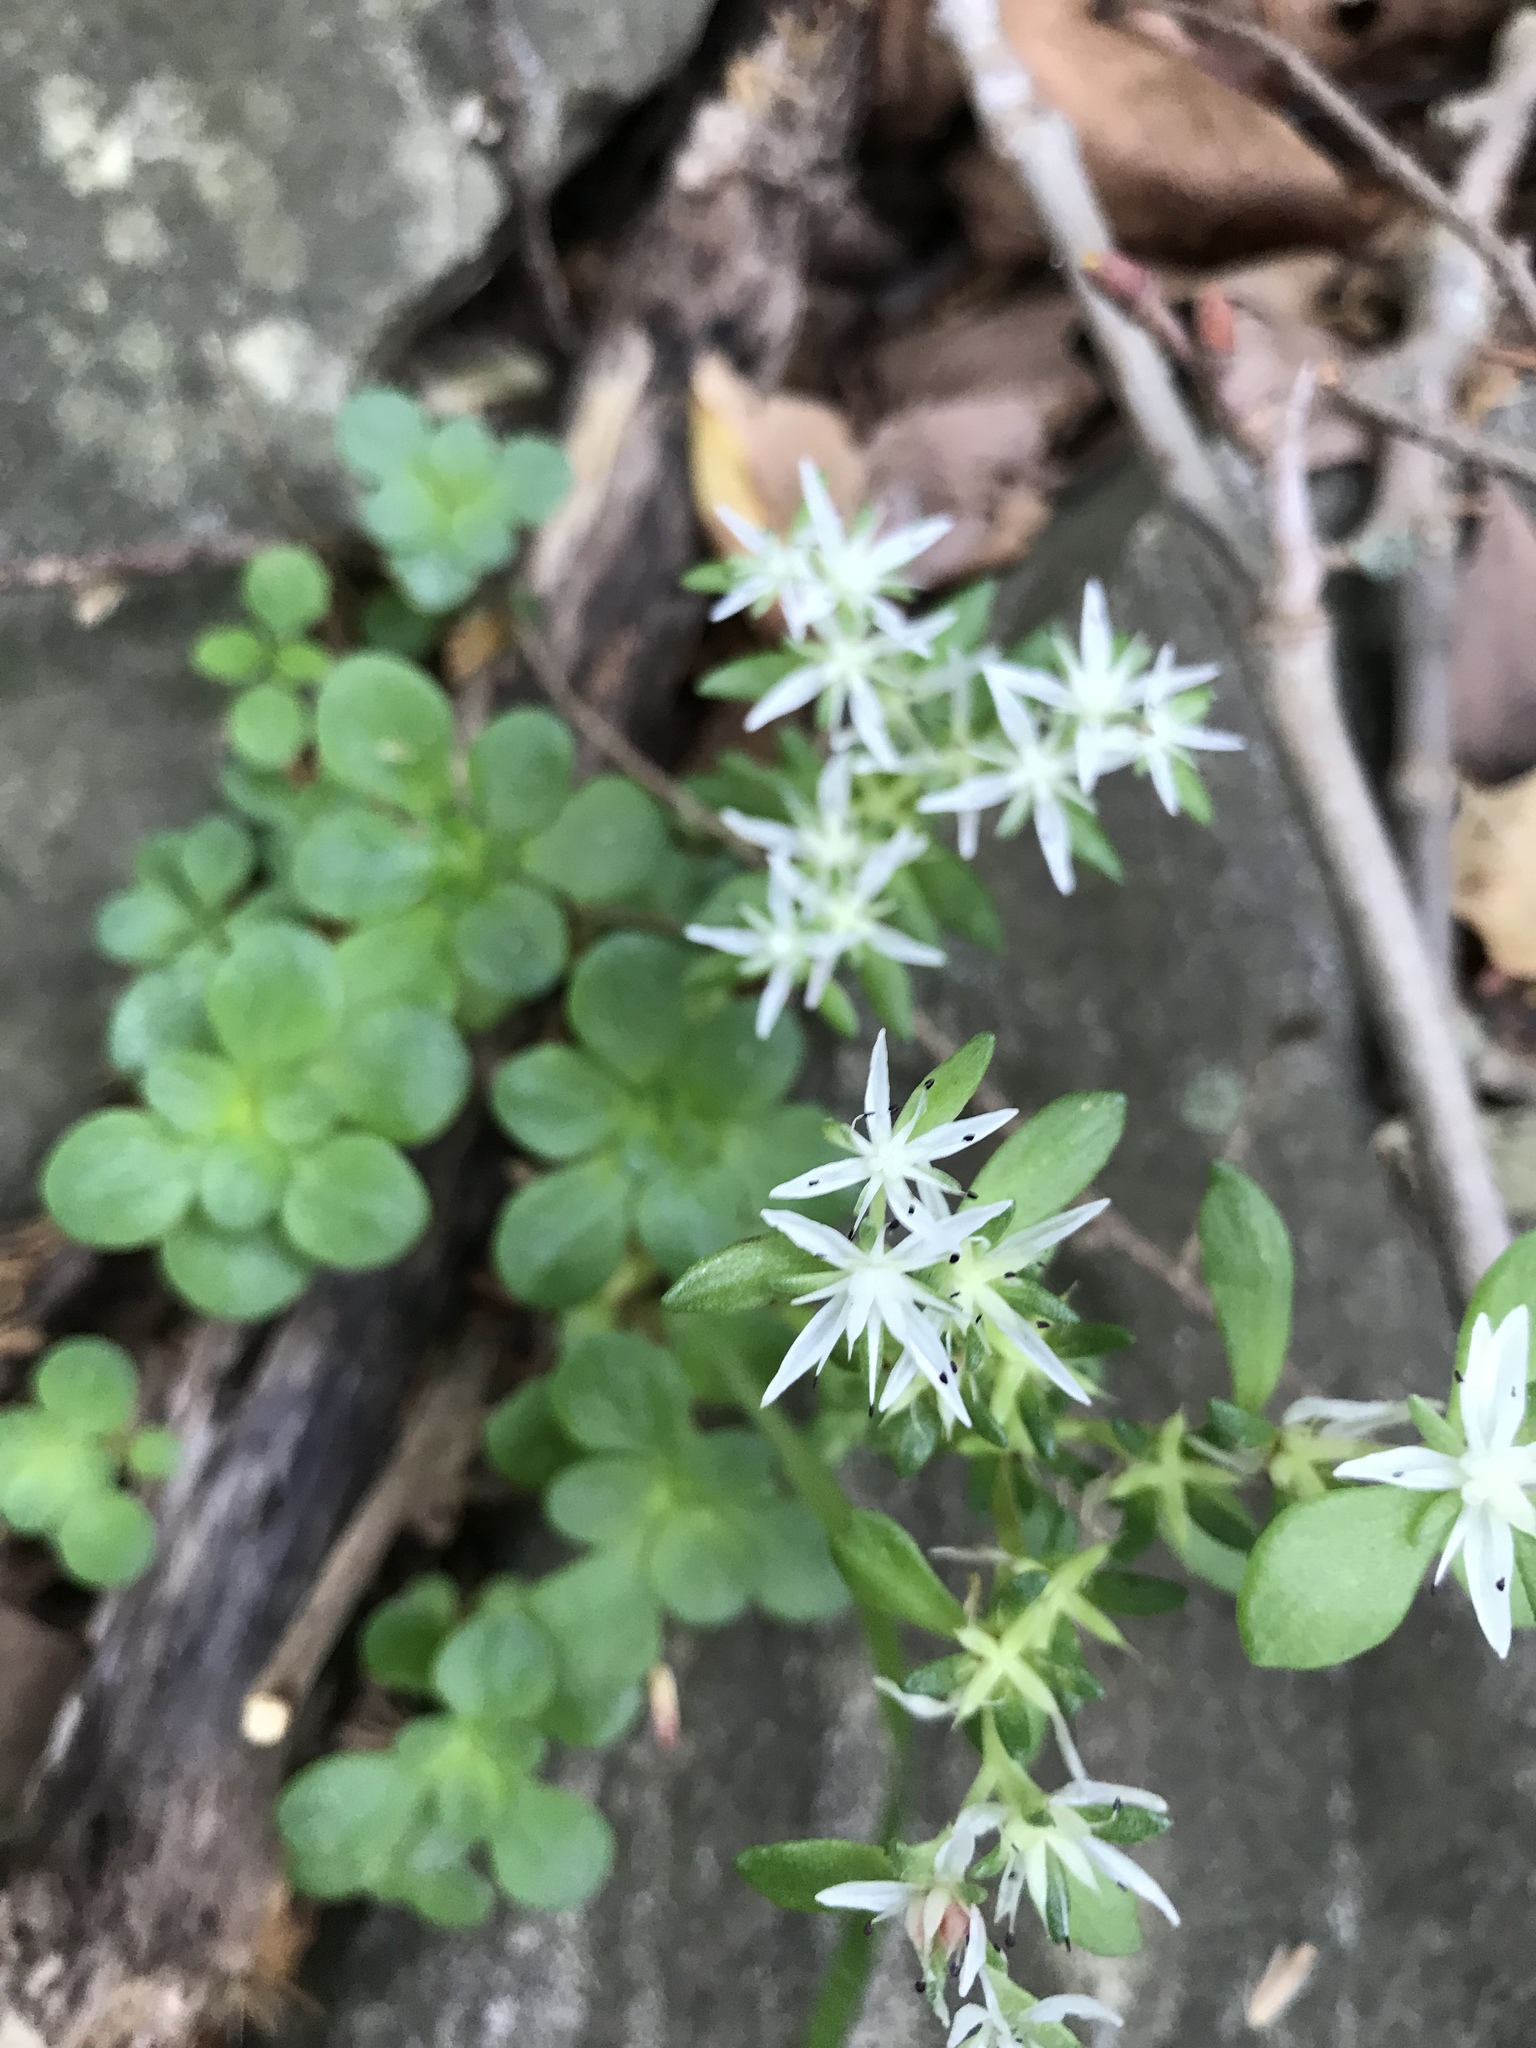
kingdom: Plantae
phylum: Tracheophyta
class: Magnoliopsida
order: Saxifragales
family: Crassulaceae
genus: Sedum
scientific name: Sedum ternatum
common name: Wild stonecrop
